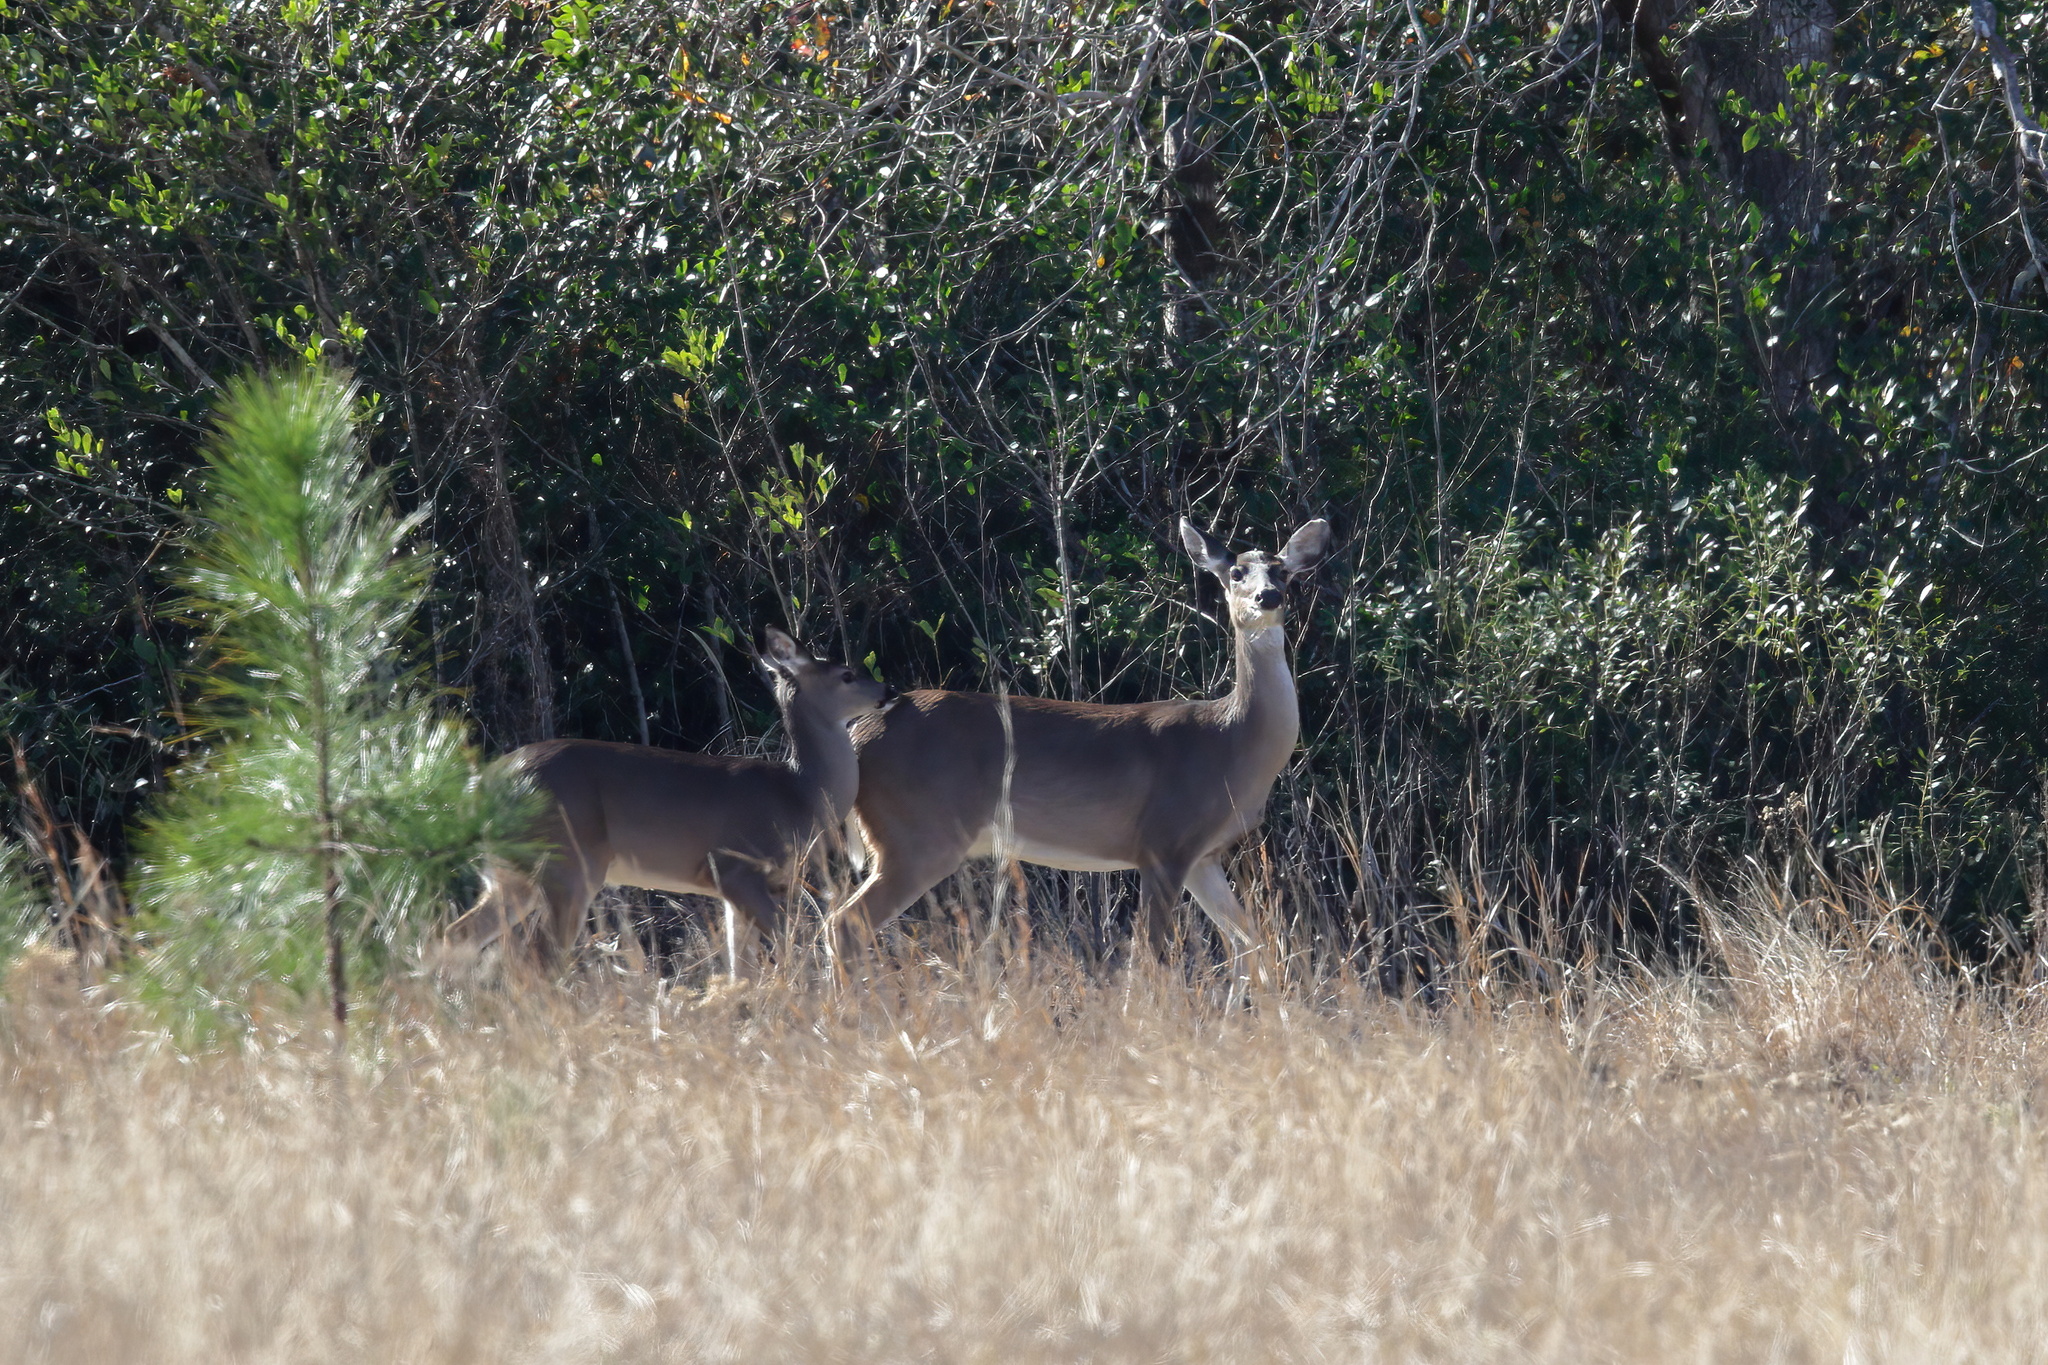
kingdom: Animalia
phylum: Chordata
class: Mammalia
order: Artiodactyla
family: Cervidae
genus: Odocoileus
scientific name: Odocoileus virginianus
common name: White-tailed deer
